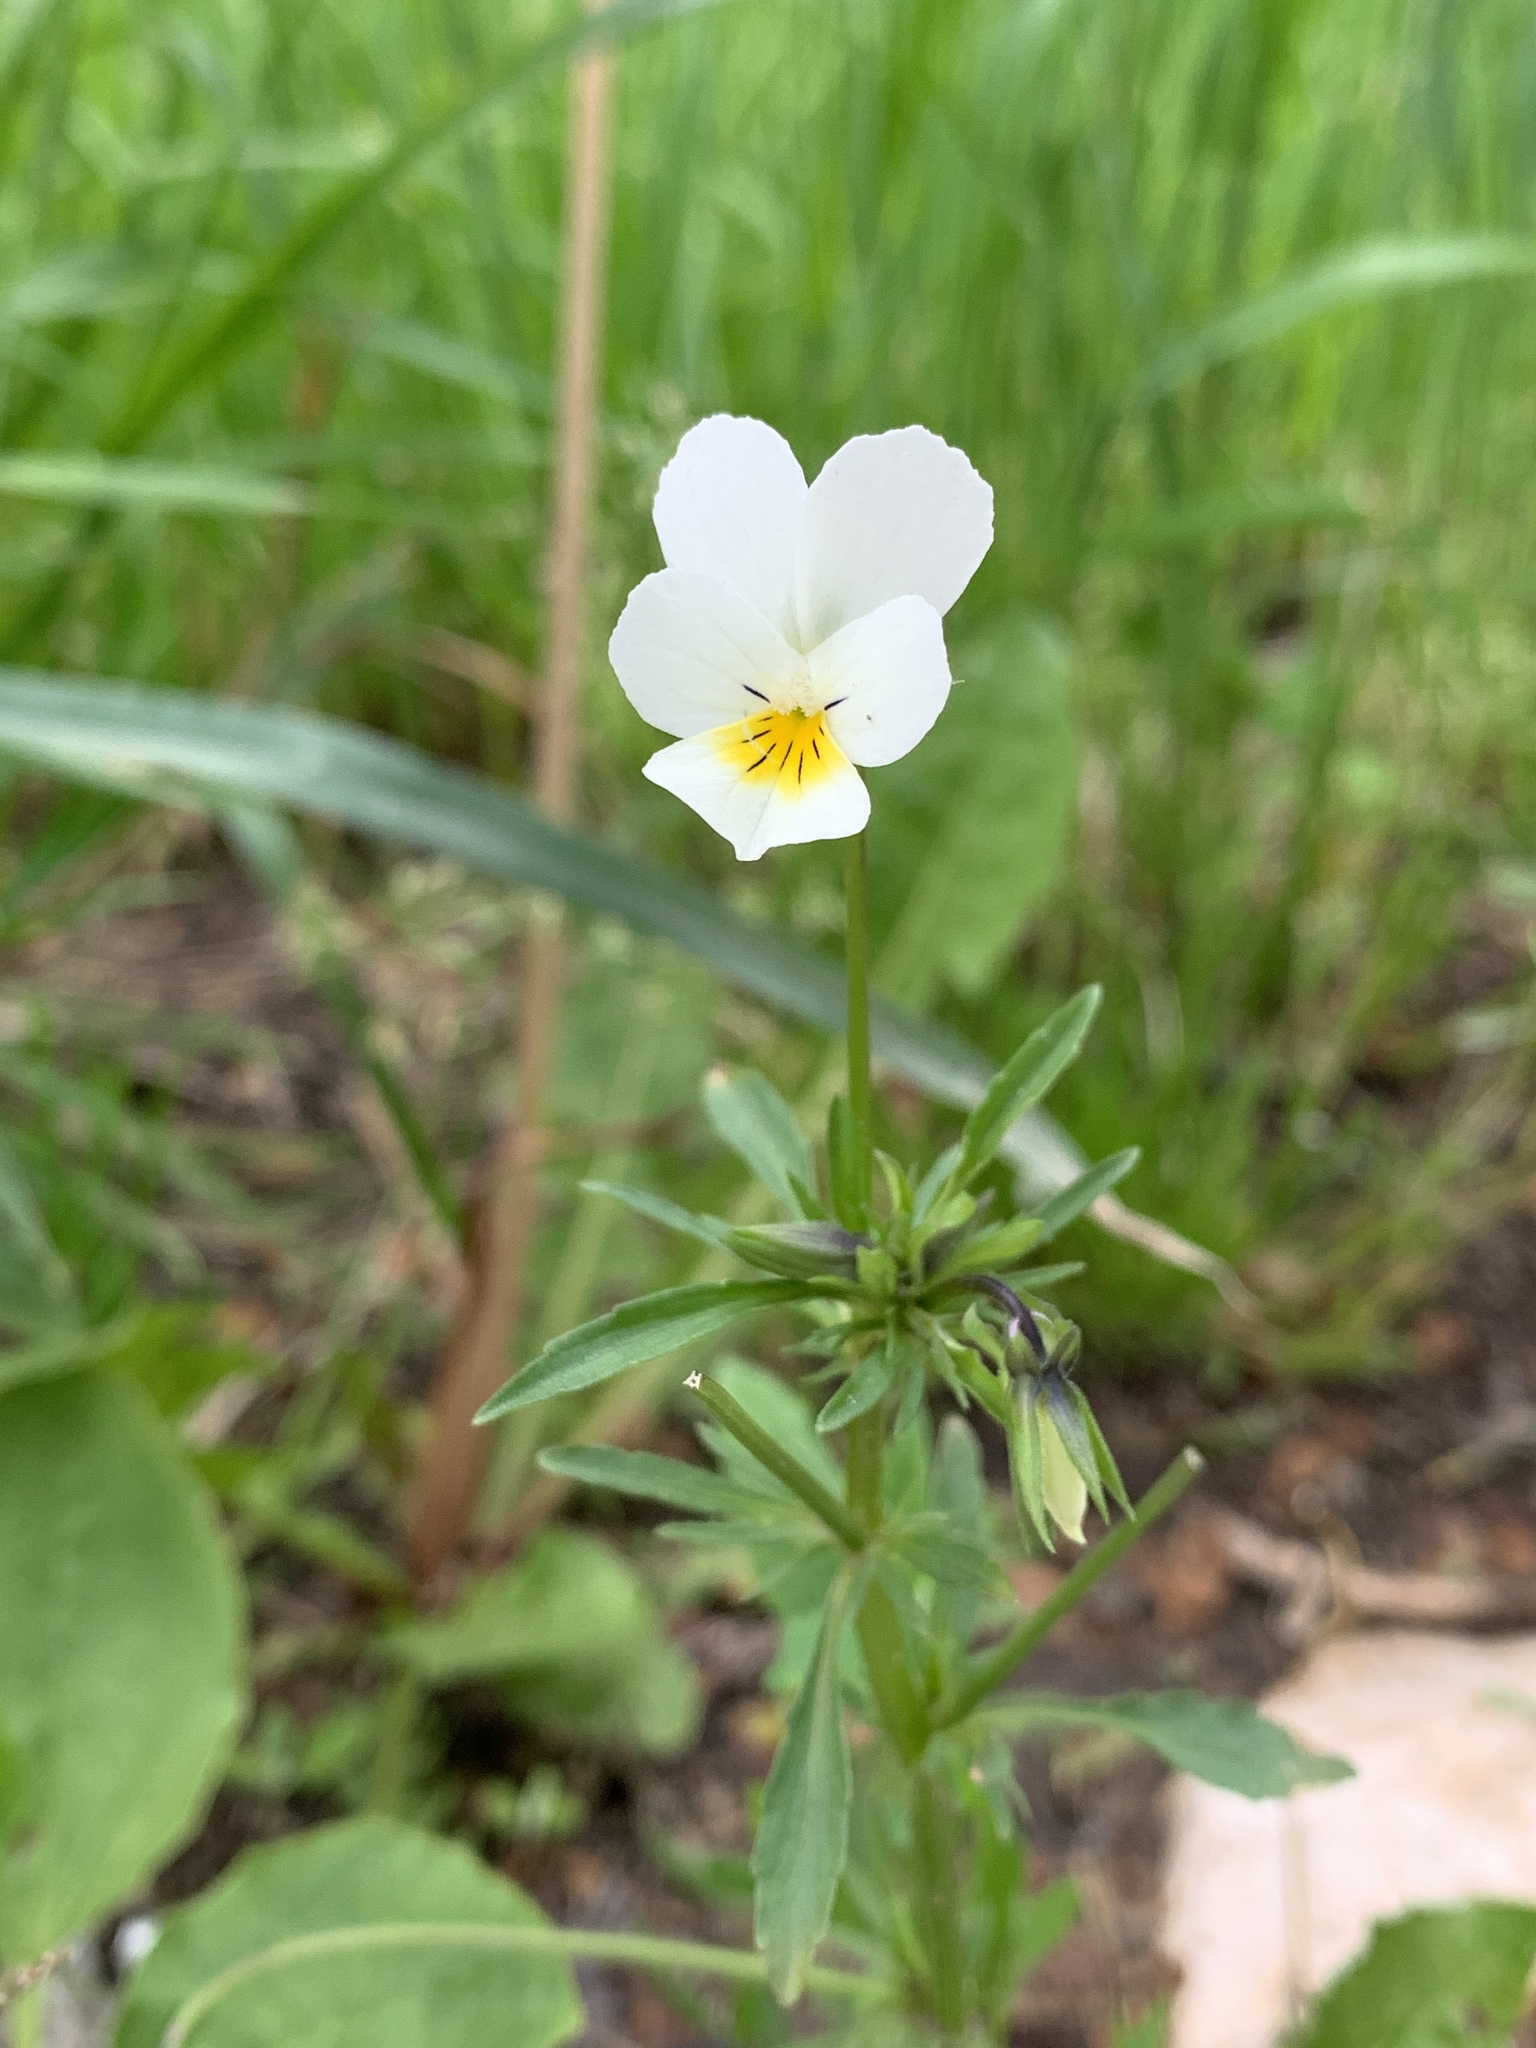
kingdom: Plantae
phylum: Tracheophyta
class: Magnoliopsida
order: Malpighiales
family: Violaceae
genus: Viola
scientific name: Viola arvensis
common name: Field pansy
